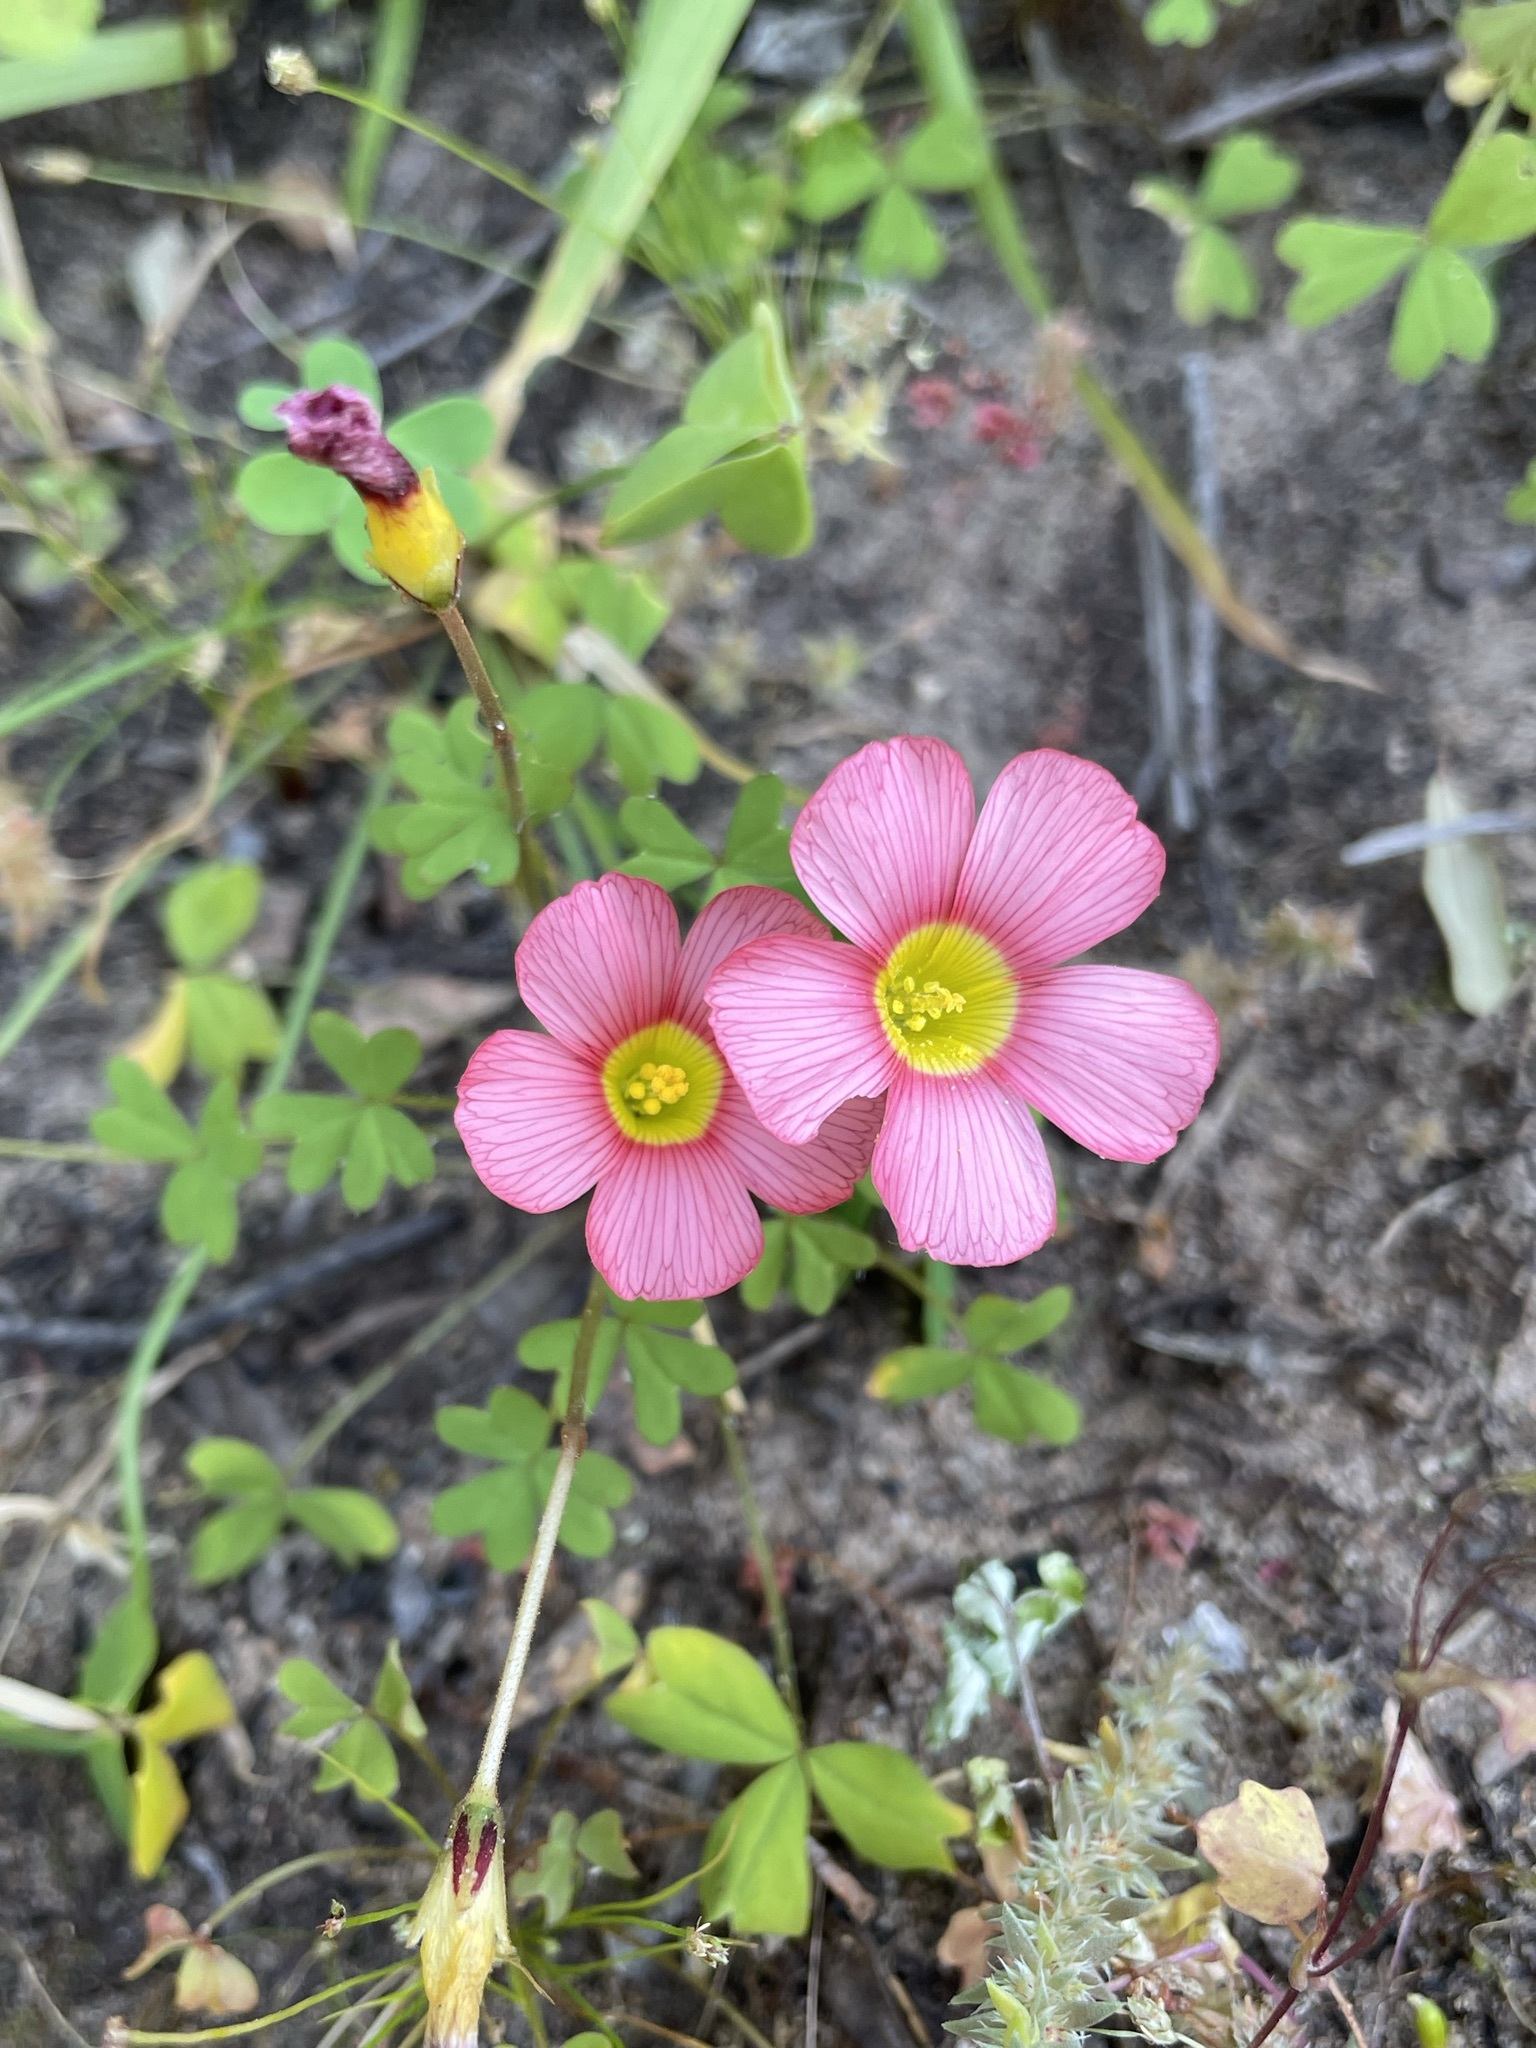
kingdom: Plantae
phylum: Tracheophyta
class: Magnoliopsida
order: Oxalidales
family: Oxalidaceae
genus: Oxalis
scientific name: Oxalis obtusa
